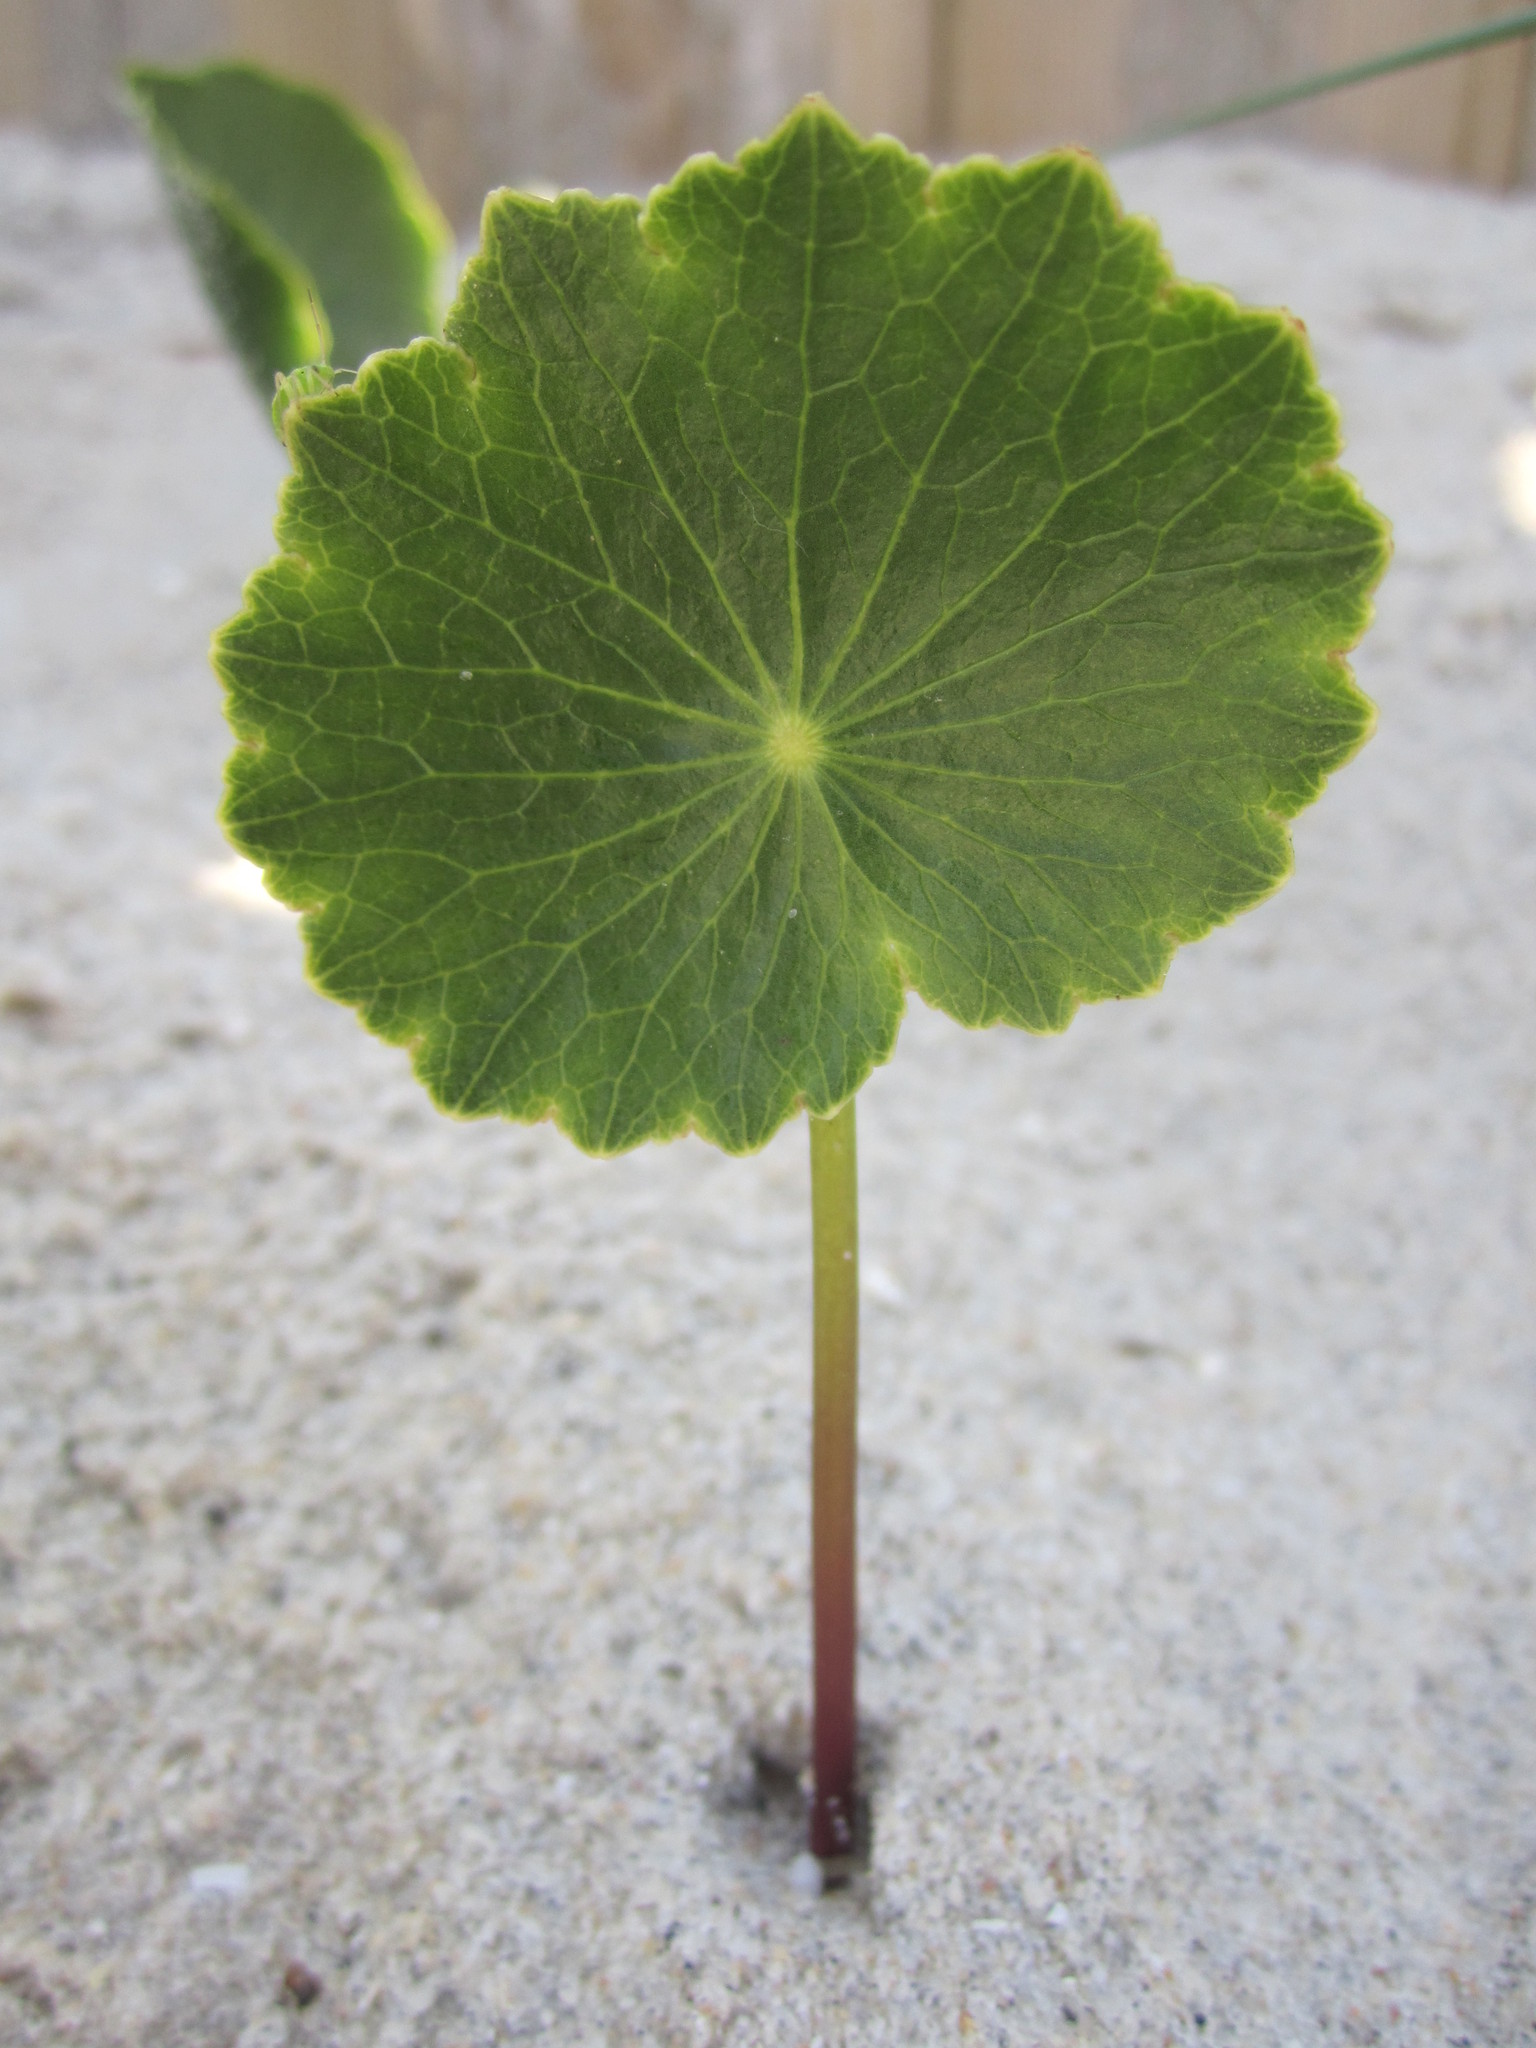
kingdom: Plantae
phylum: Tracheophyta
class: Magnoliopsida
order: Apiales
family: Araliaceae
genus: Hydrocotyle
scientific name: Hydrocotyle bonariensis
